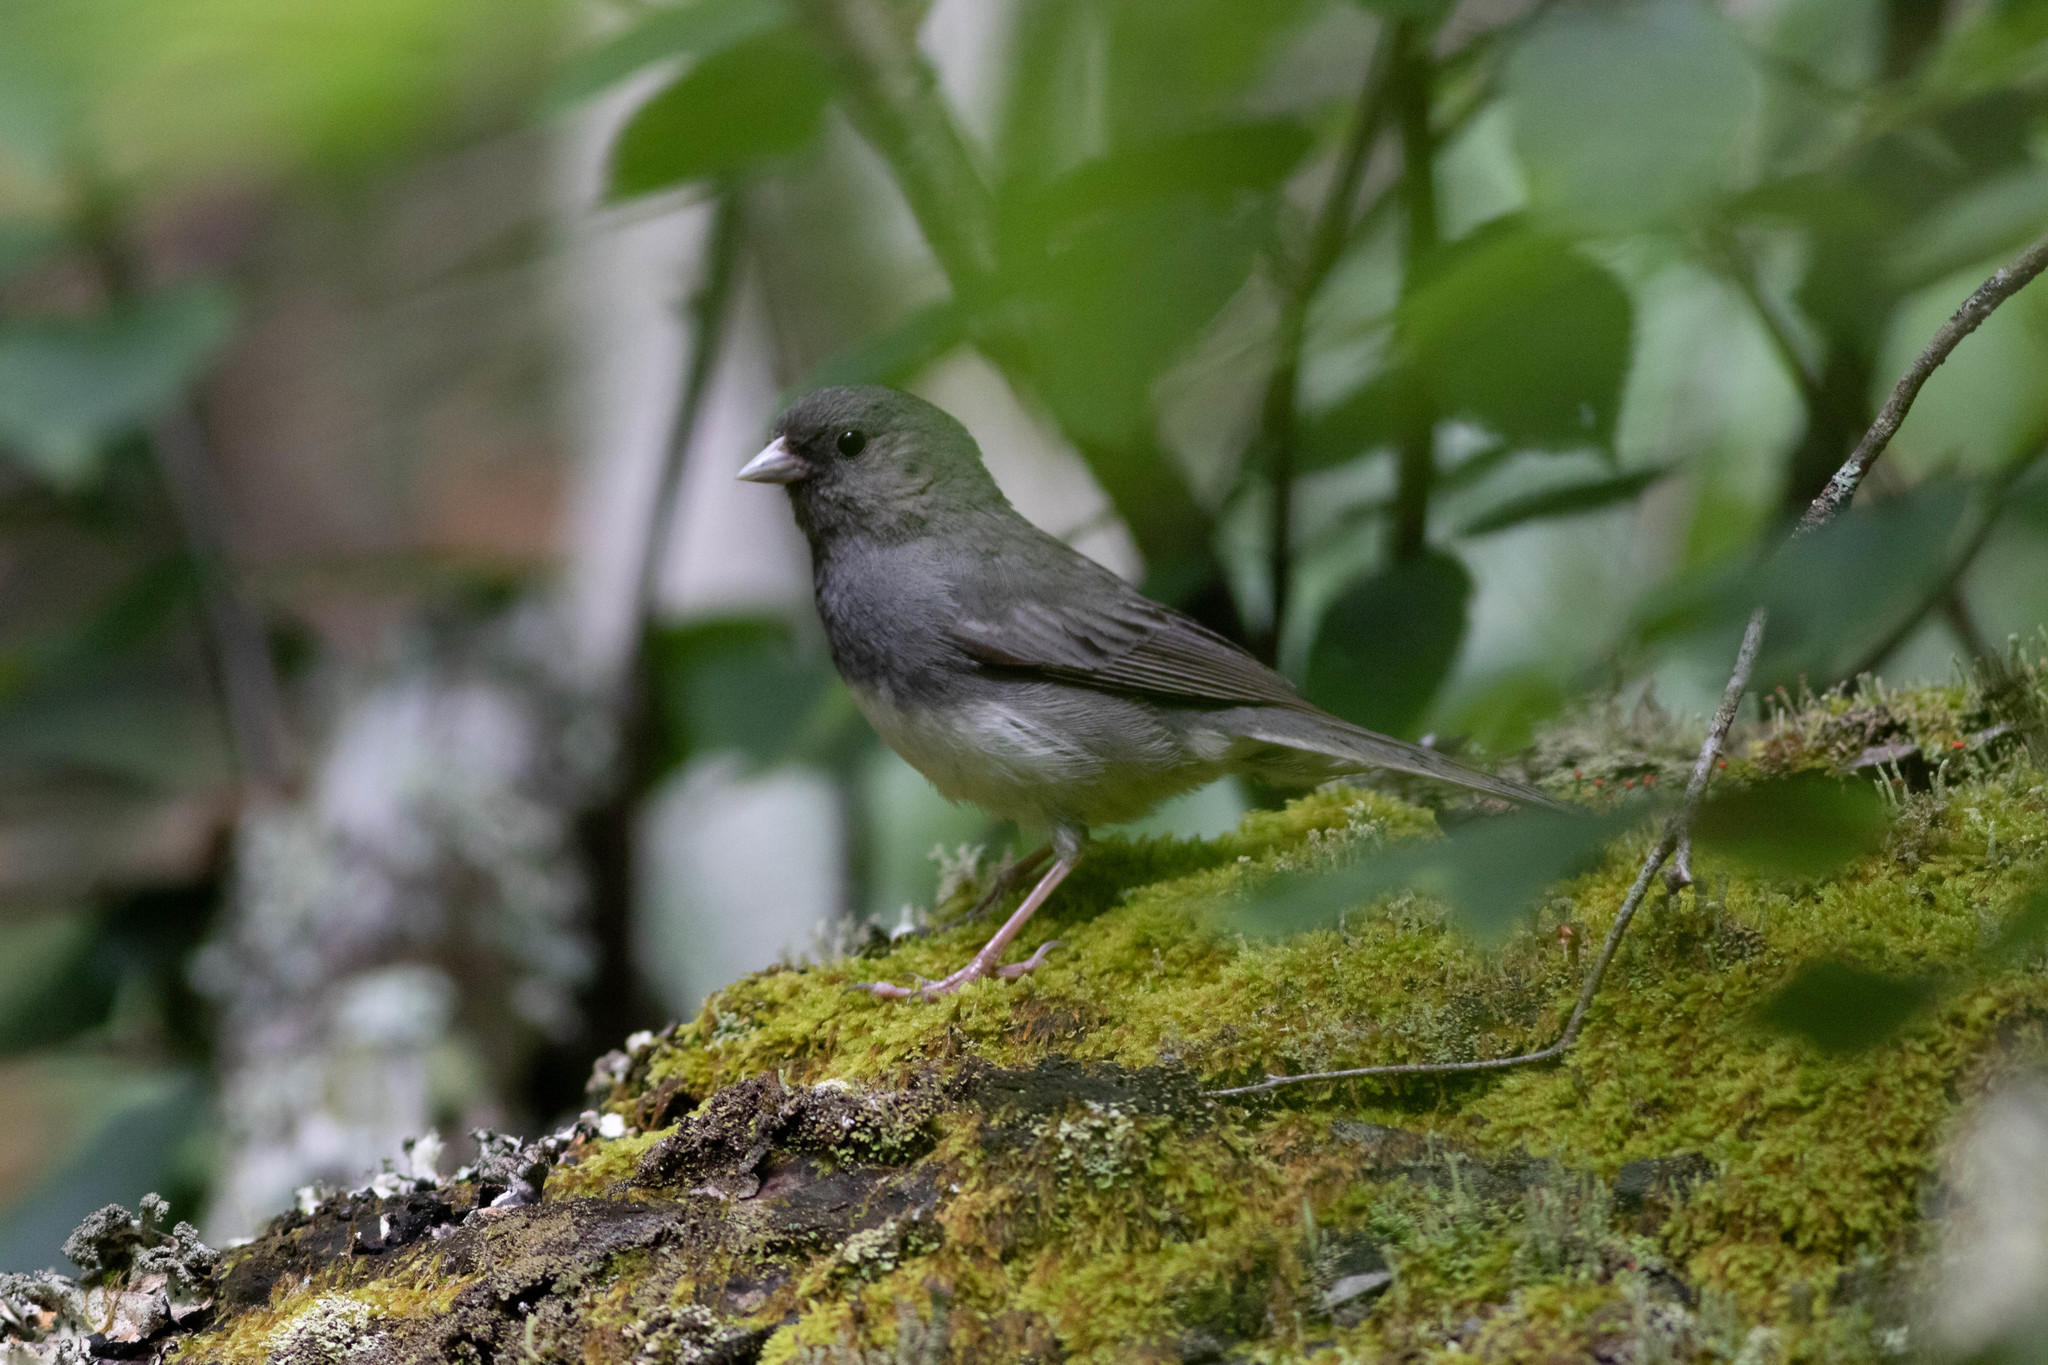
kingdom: Animalia
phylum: Chordata
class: Aves
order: Passeriformes
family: Passerellidae
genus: Junco
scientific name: Junco hyemalis
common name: Dark-eyed junco
